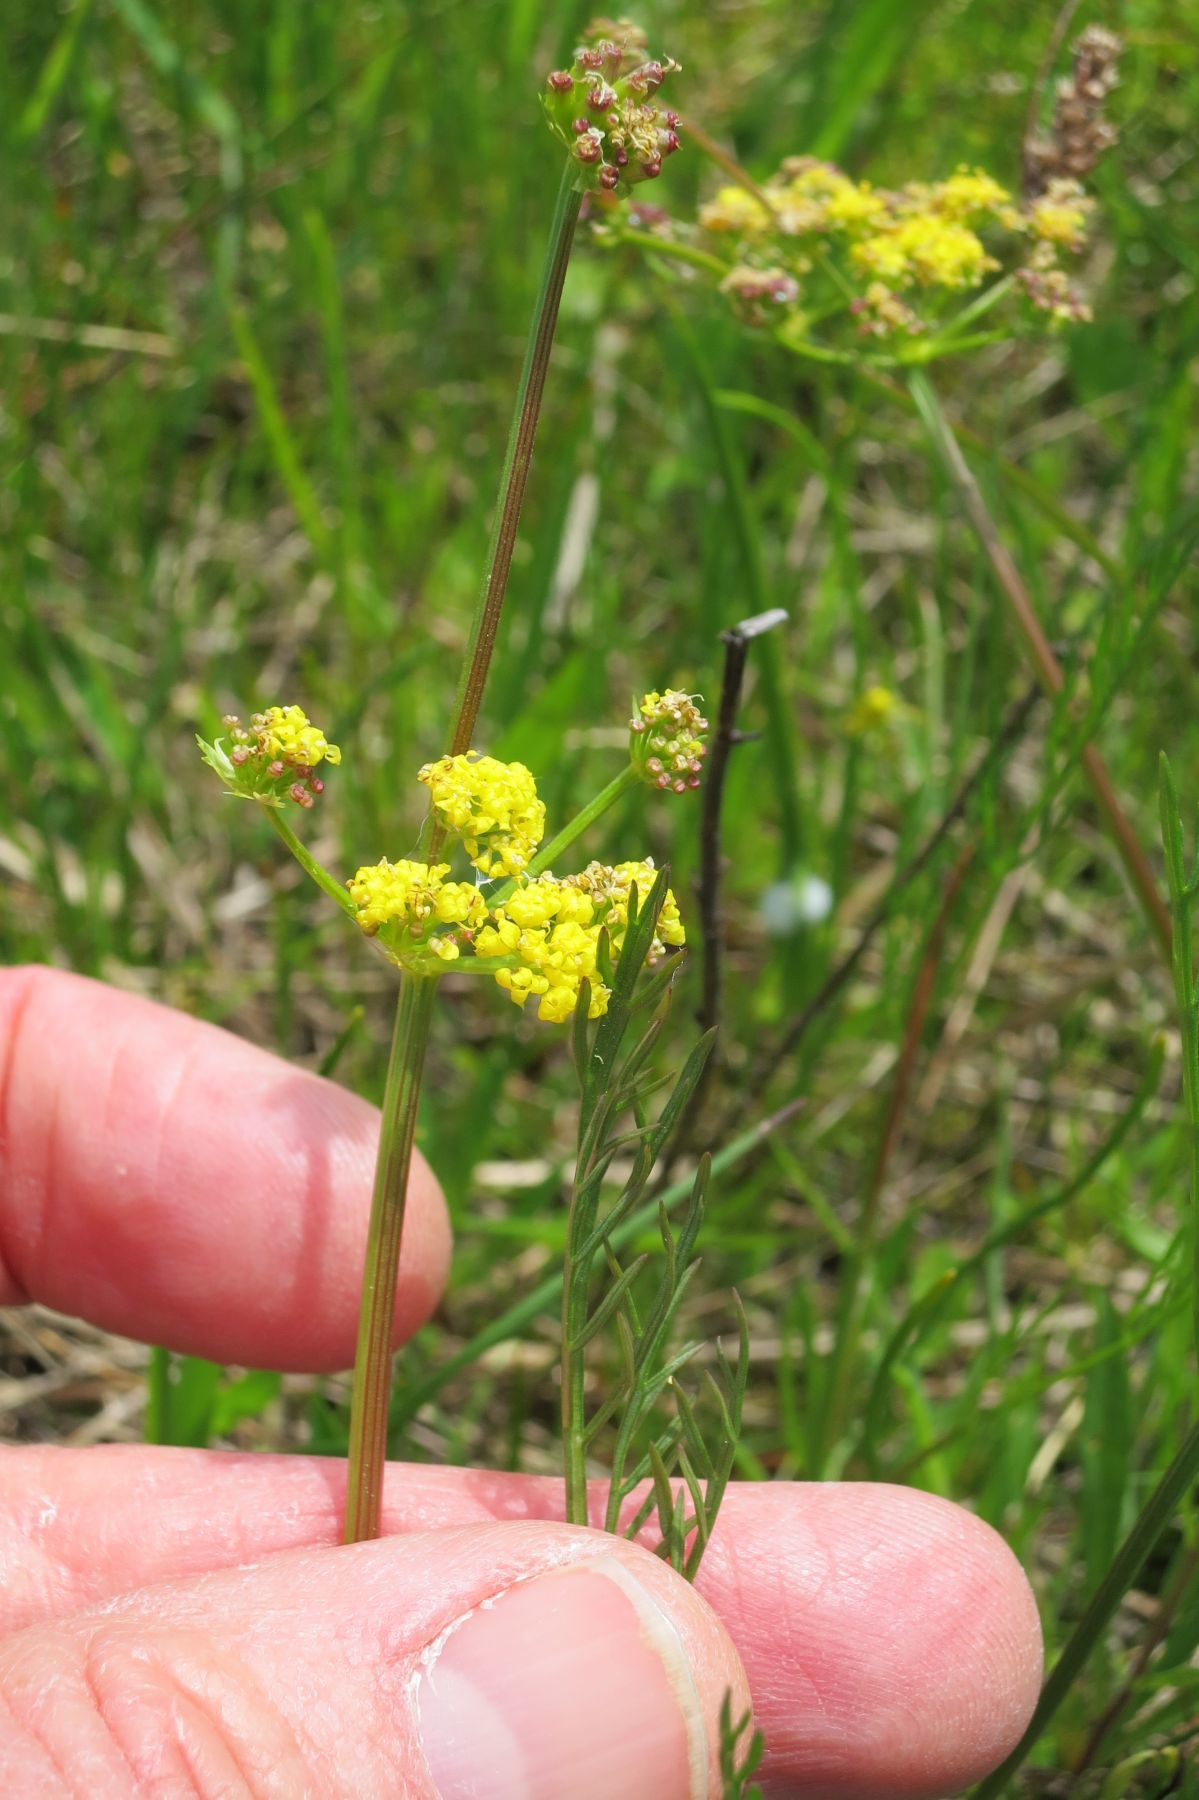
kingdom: Plantae
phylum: Tracheophyta
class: Magnoliopsida
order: Apiales
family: Apiaceae
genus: Lomatium
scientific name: Lomatium bradshawii
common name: Bradshaw's desert-parsley
